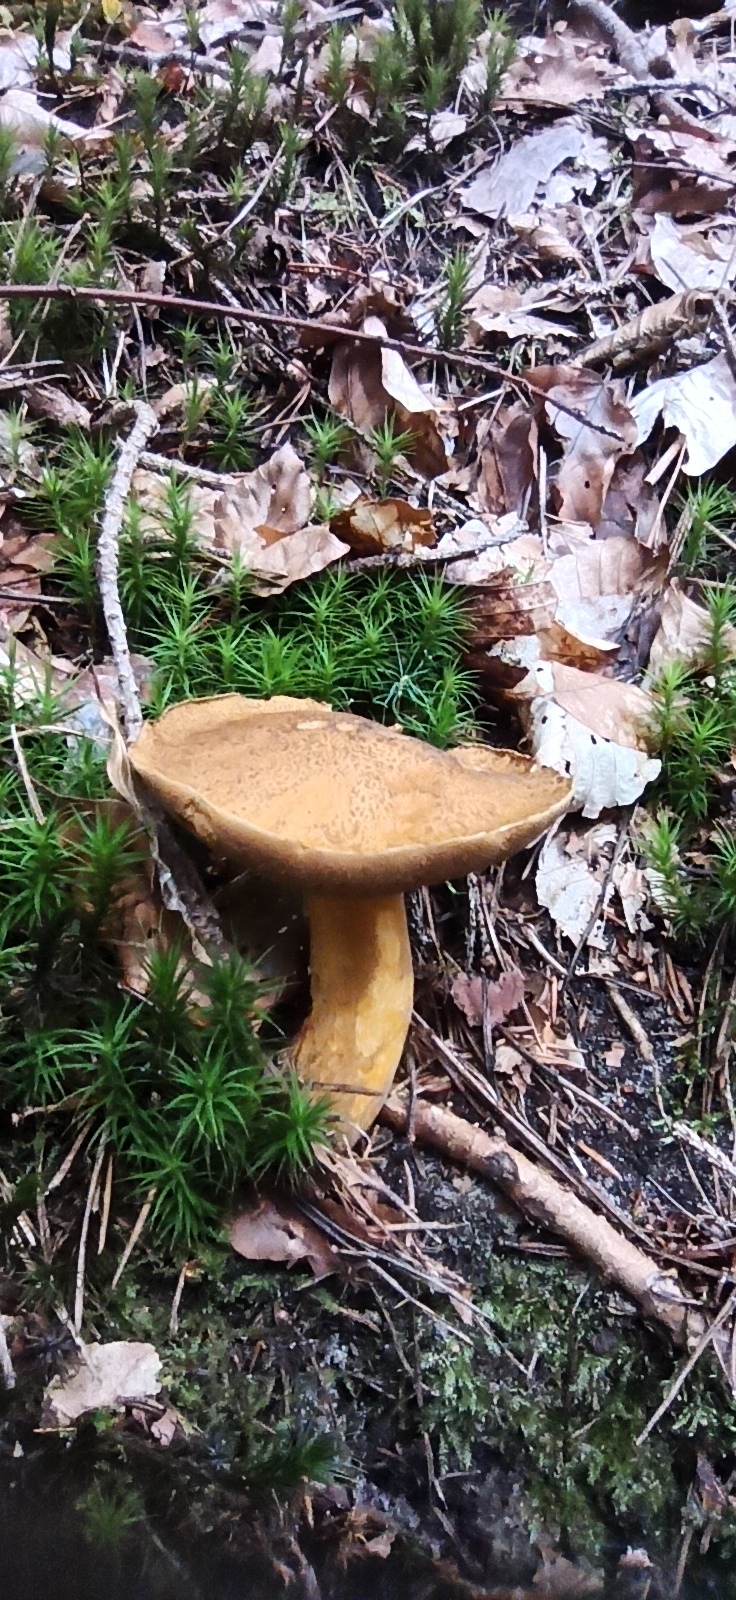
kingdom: Fungi
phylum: Basidiomycota
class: Agaricomycetes
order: Boletales
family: Suillaceae
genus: Suillus
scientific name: Suillus variegatus
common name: Velvet bolete
